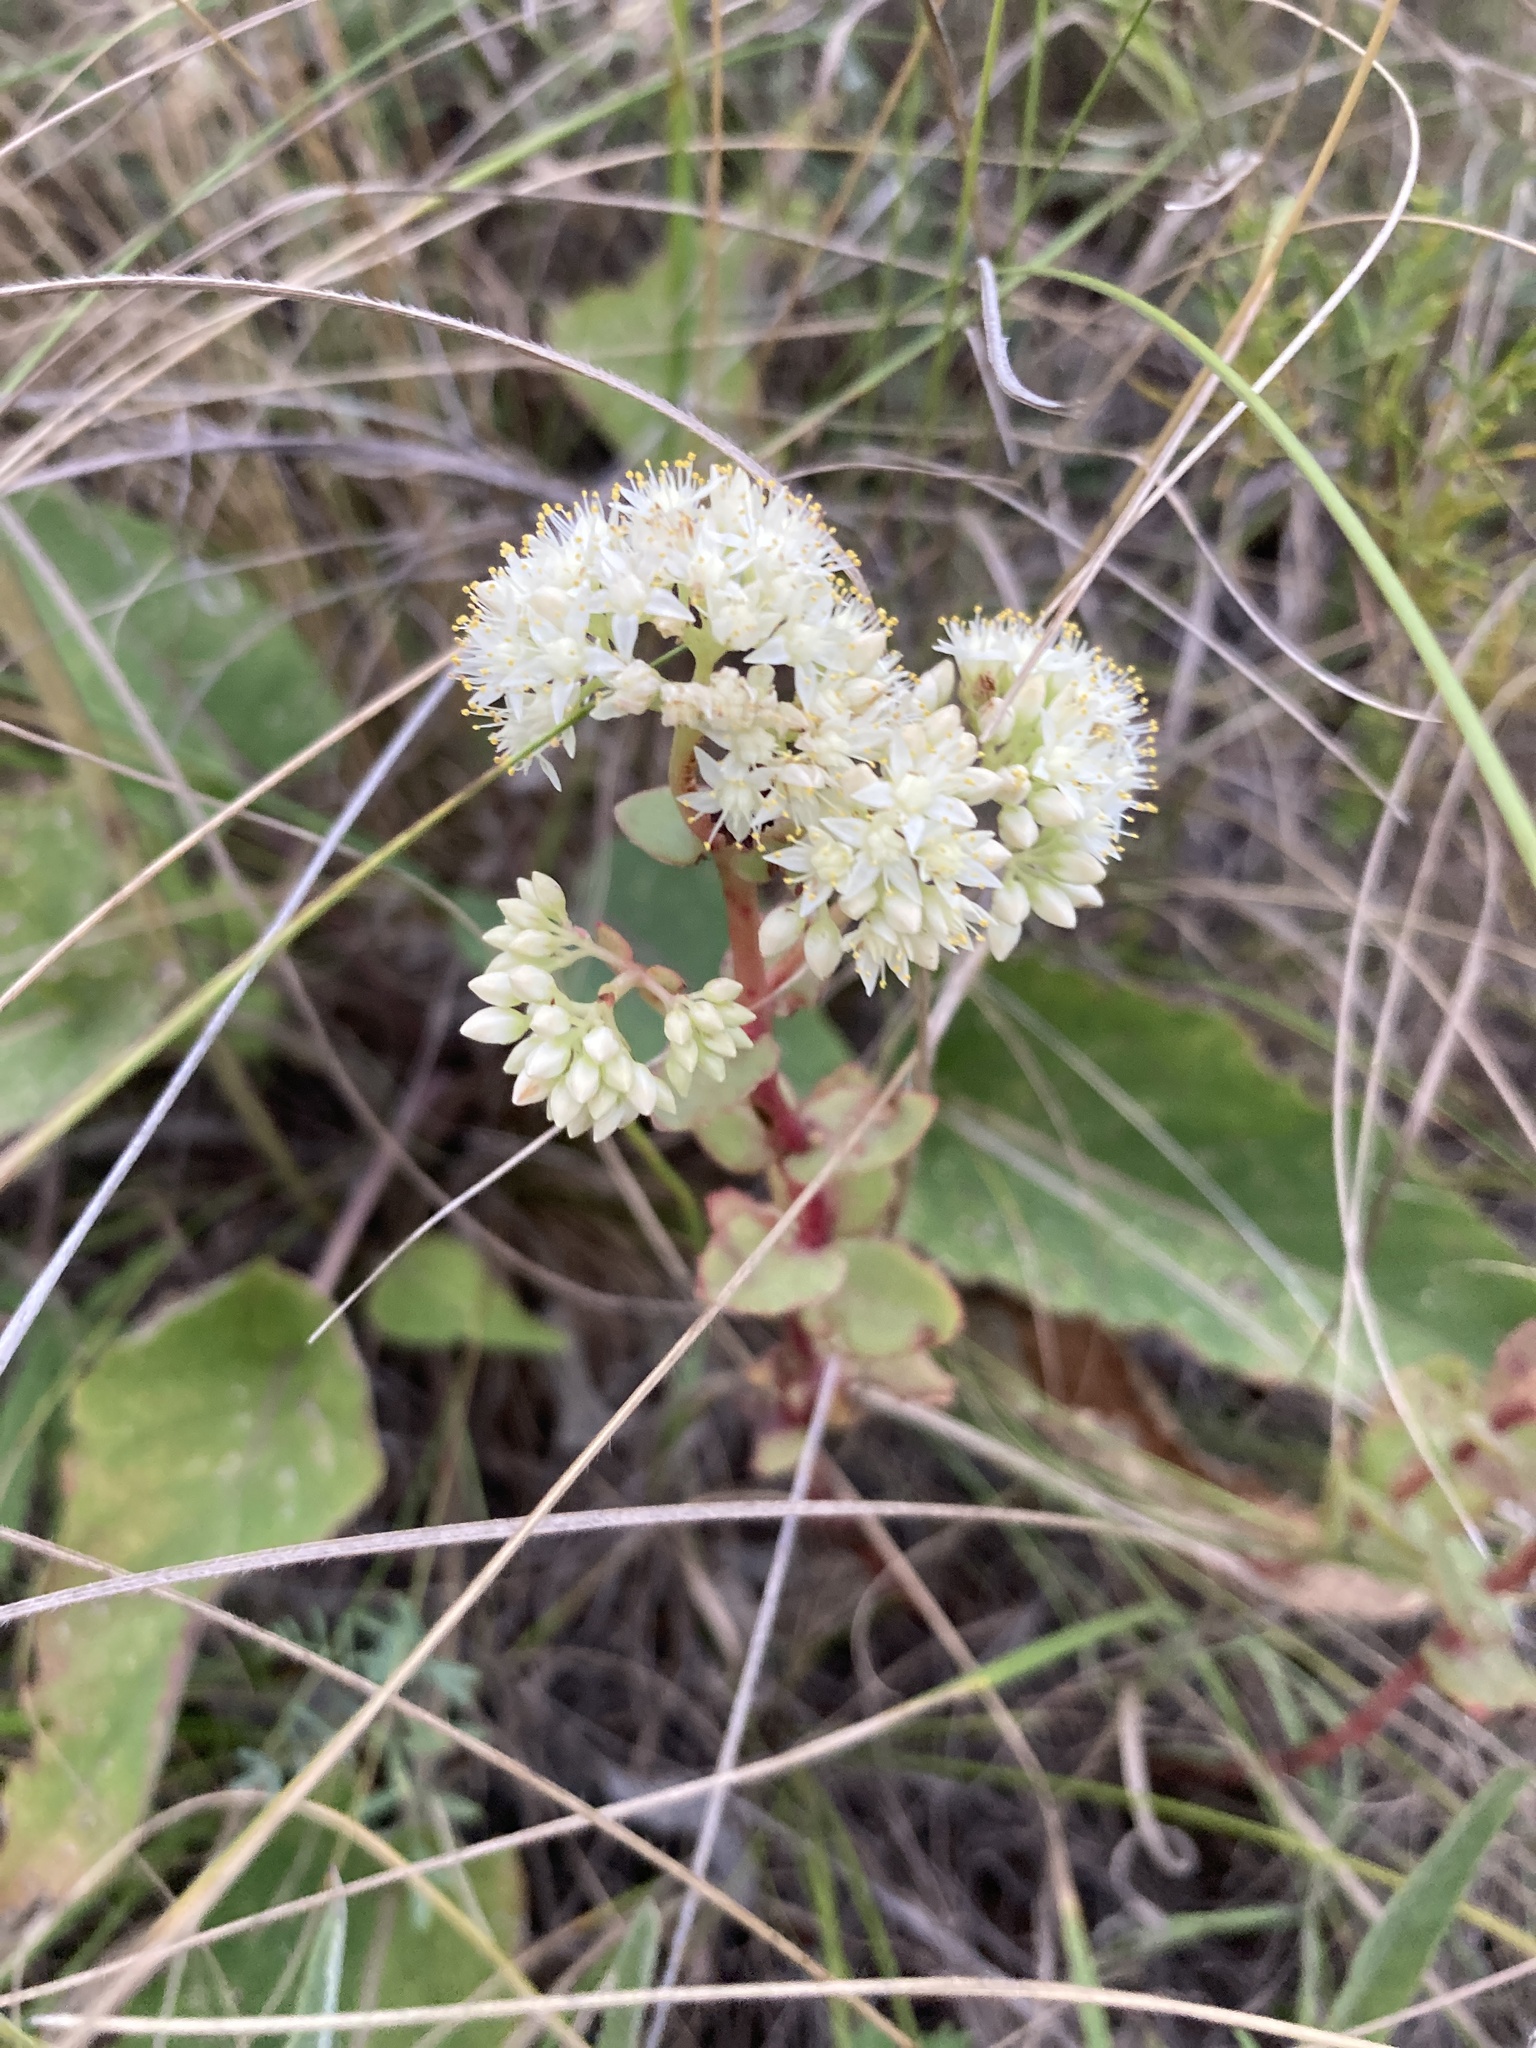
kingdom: Plantae
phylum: Tracheophyta
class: Magnoliopsida
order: Saxifragales
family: Crassulaceae
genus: Hylotelephium
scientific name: Hylotelephium maximum
